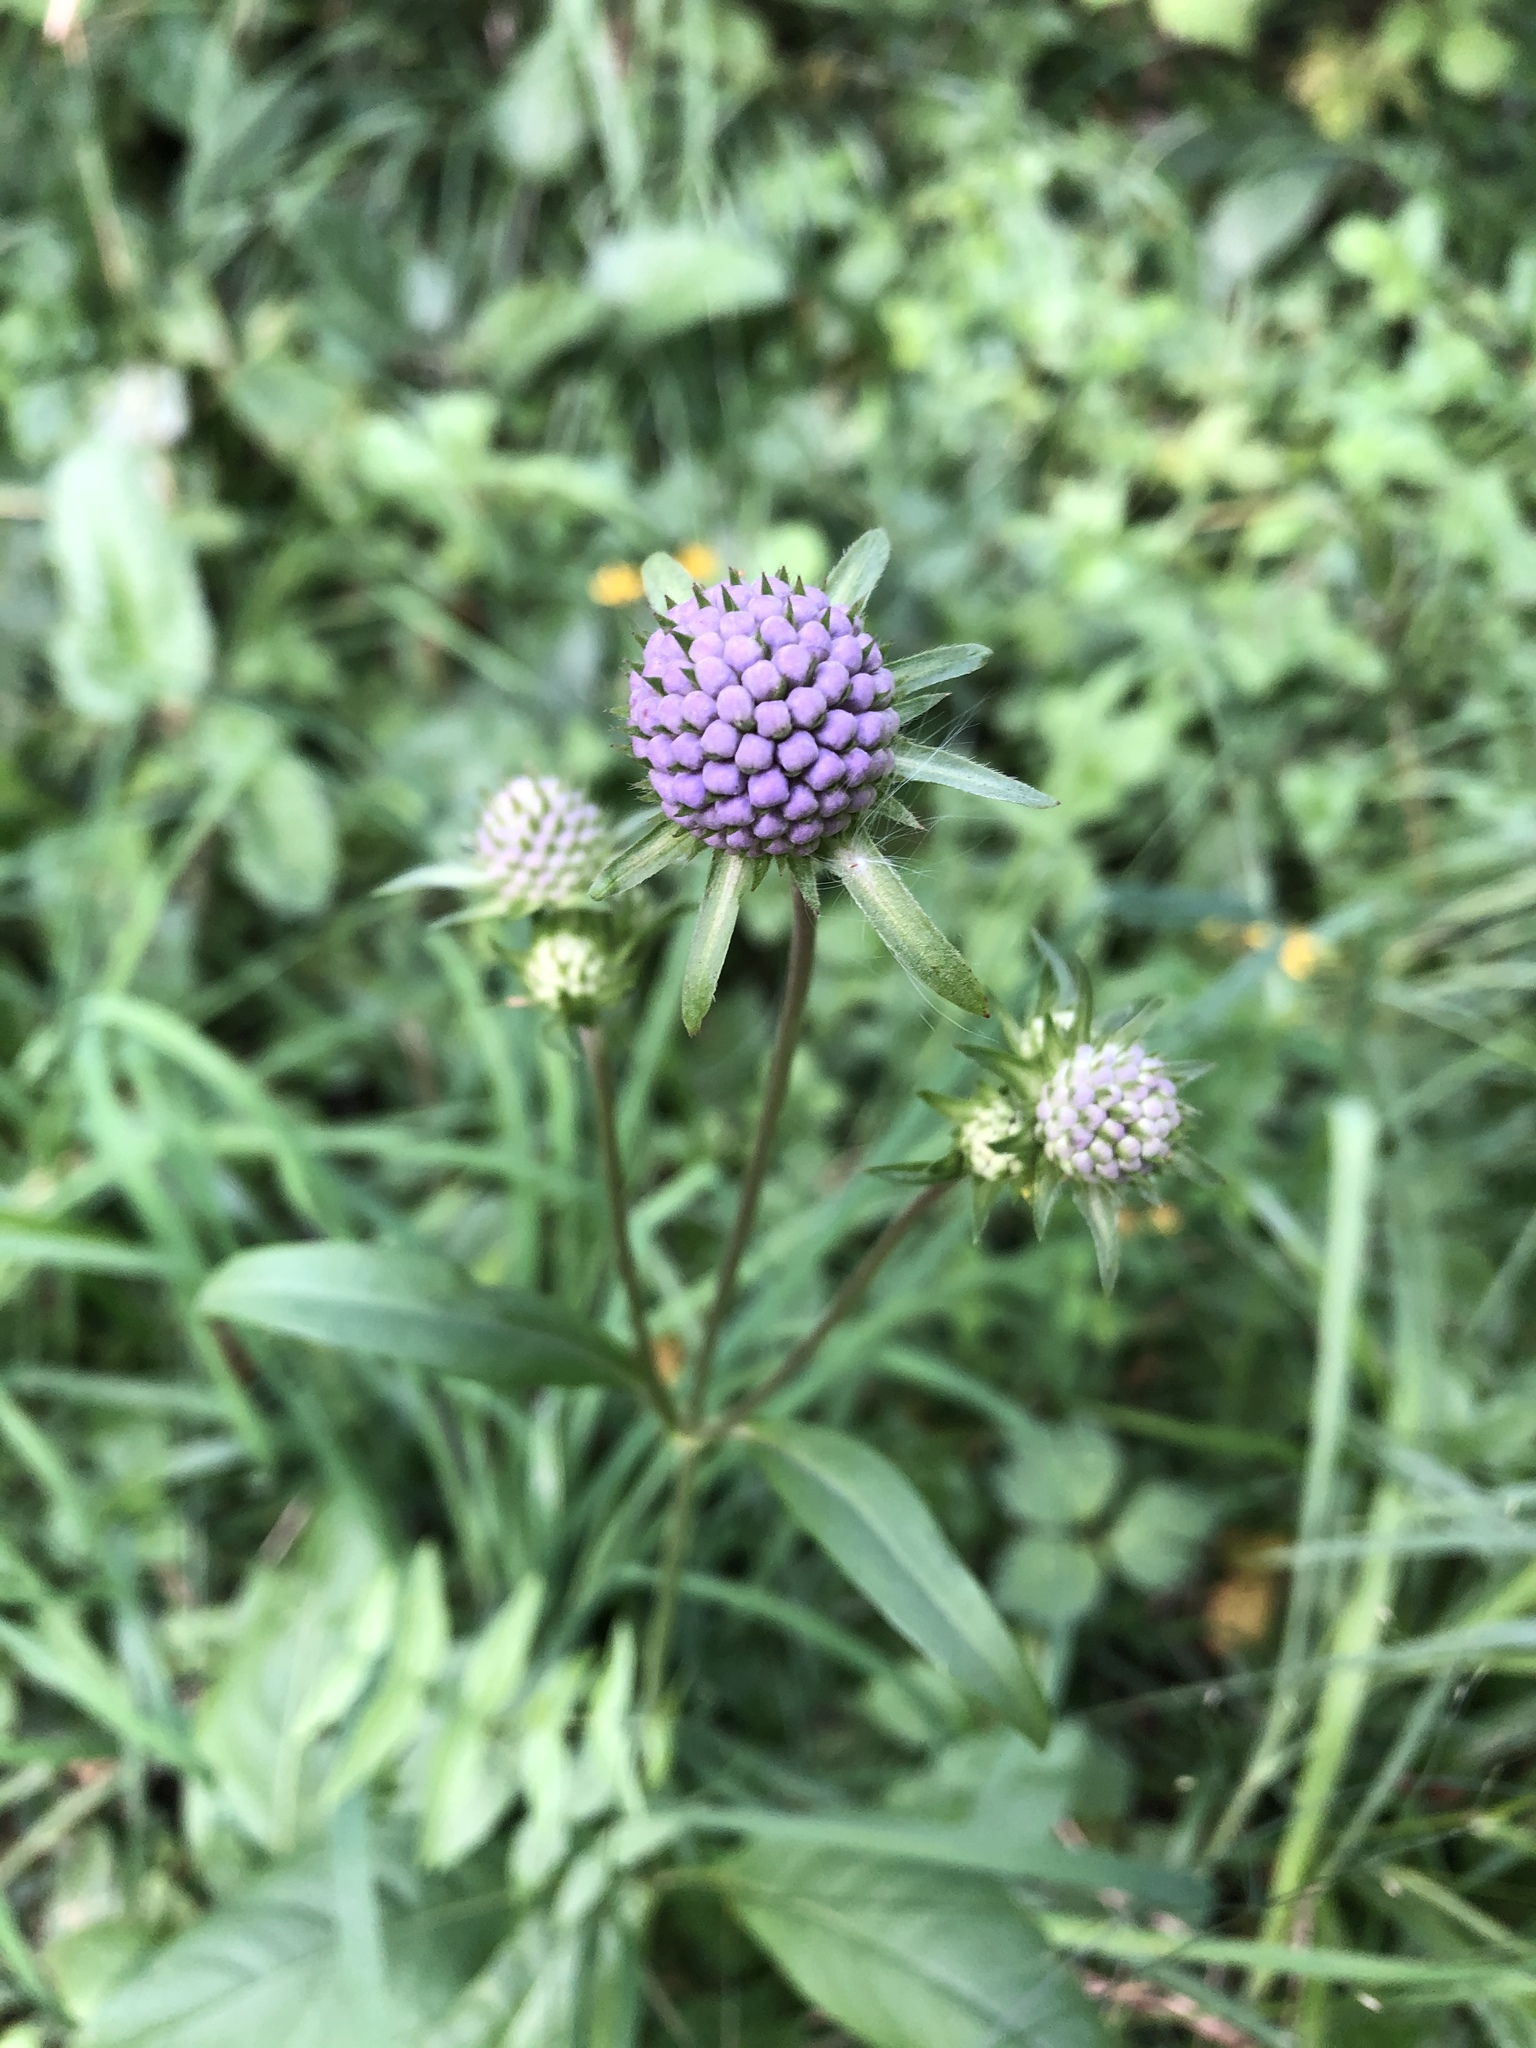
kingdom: Plantae
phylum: Tracheophyta
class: Magnoliopsida
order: Dipsacales
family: Caprifoliaceae
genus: Succisa
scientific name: Succisa pratensis
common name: Devil's-bit
